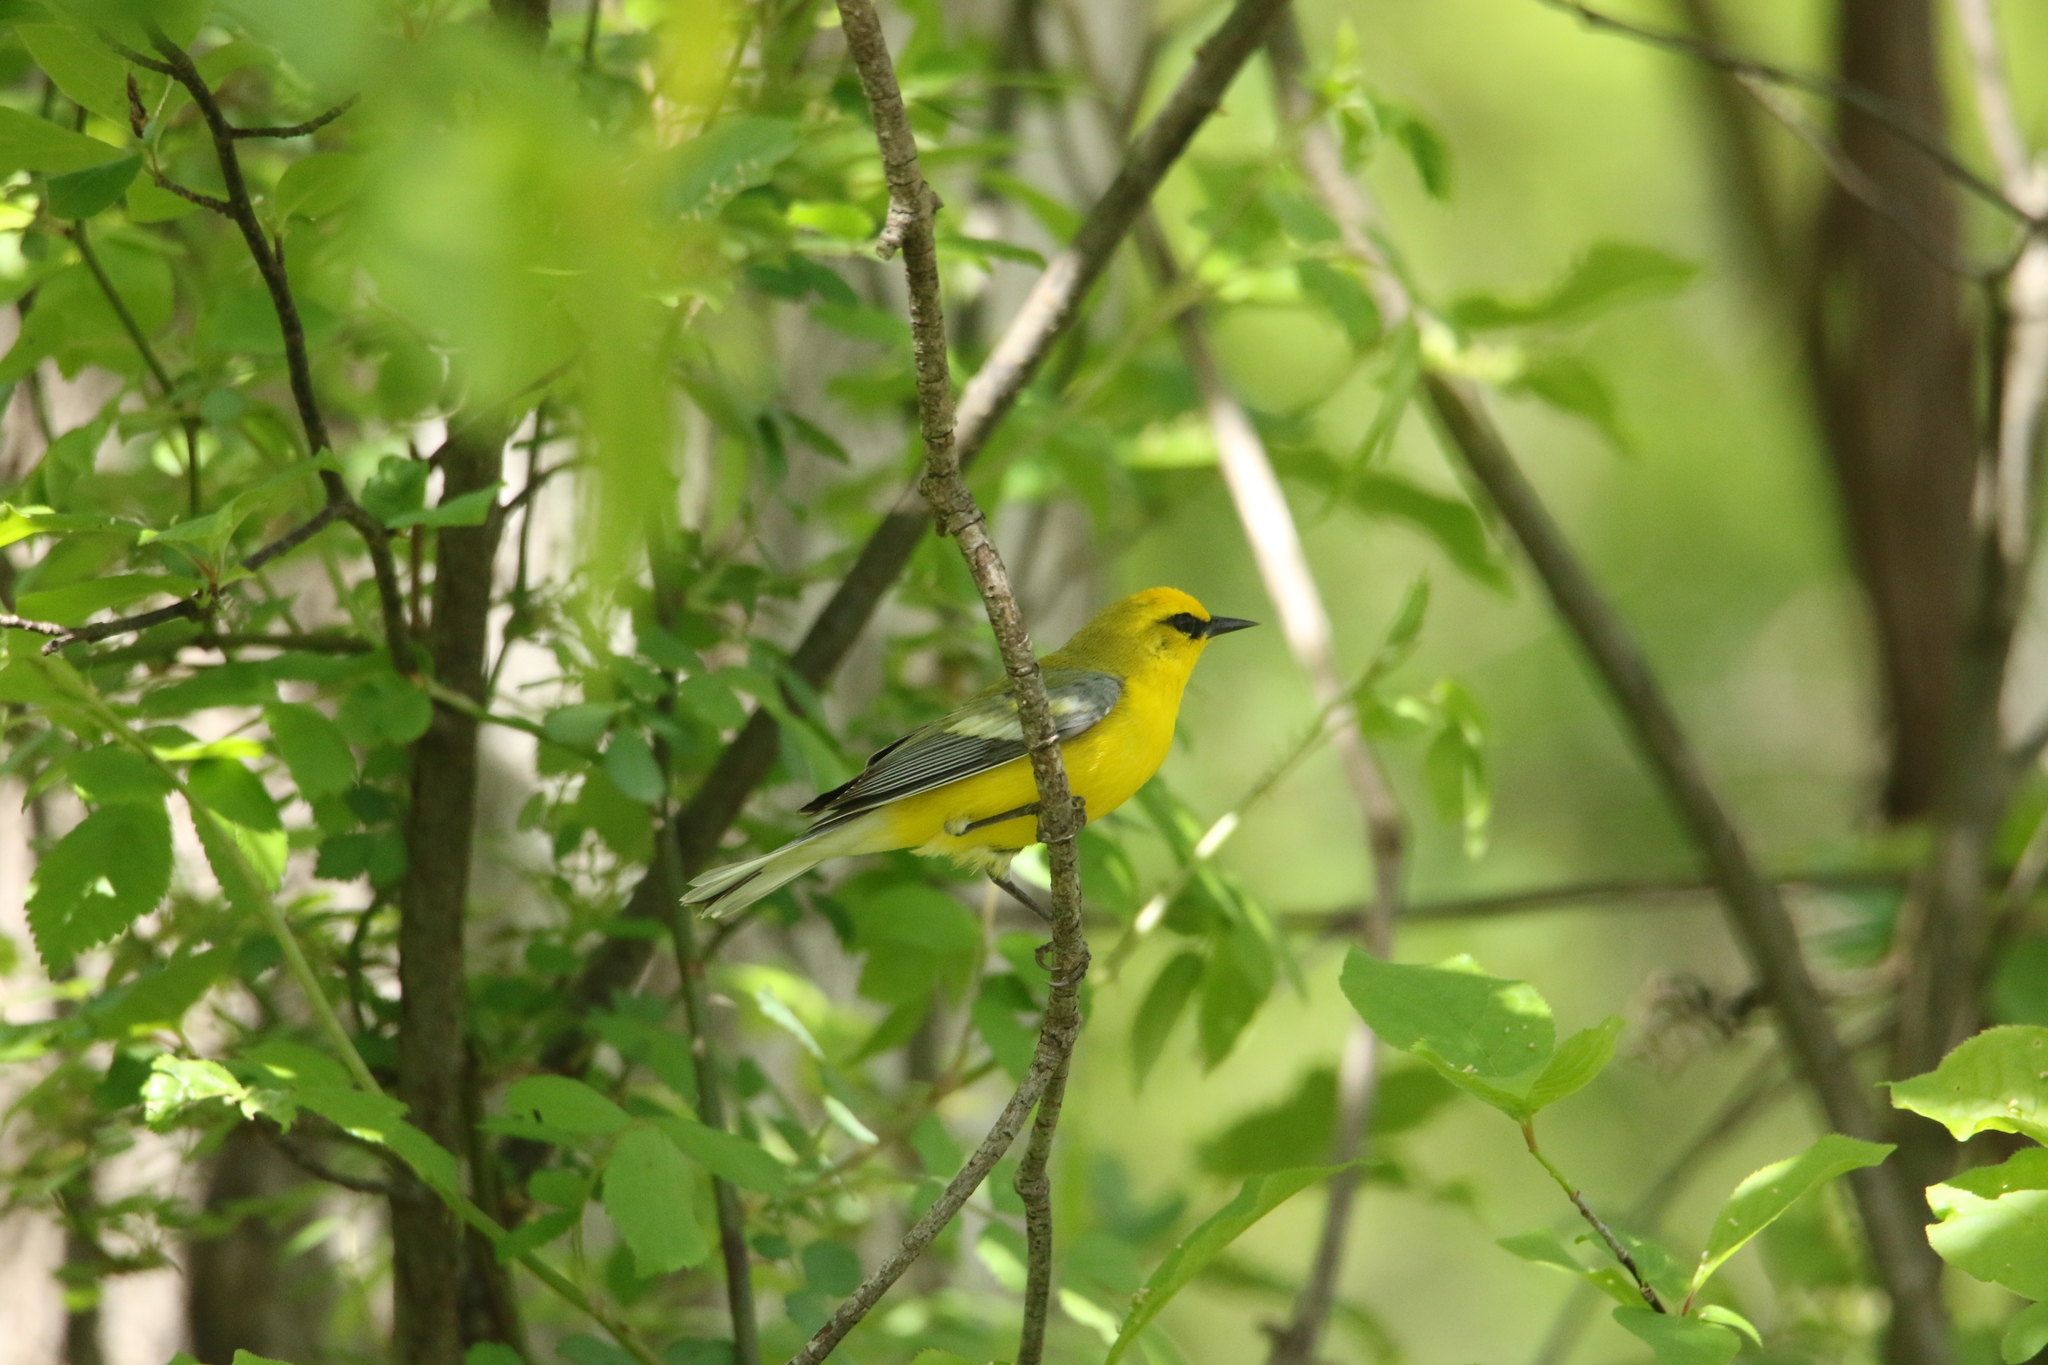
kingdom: Animalia
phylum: Chordata
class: Aves
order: Passeriformes
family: Parulidae
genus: Vermivora
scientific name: Vermivora cyanoptera
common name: Blue-winged warbler
